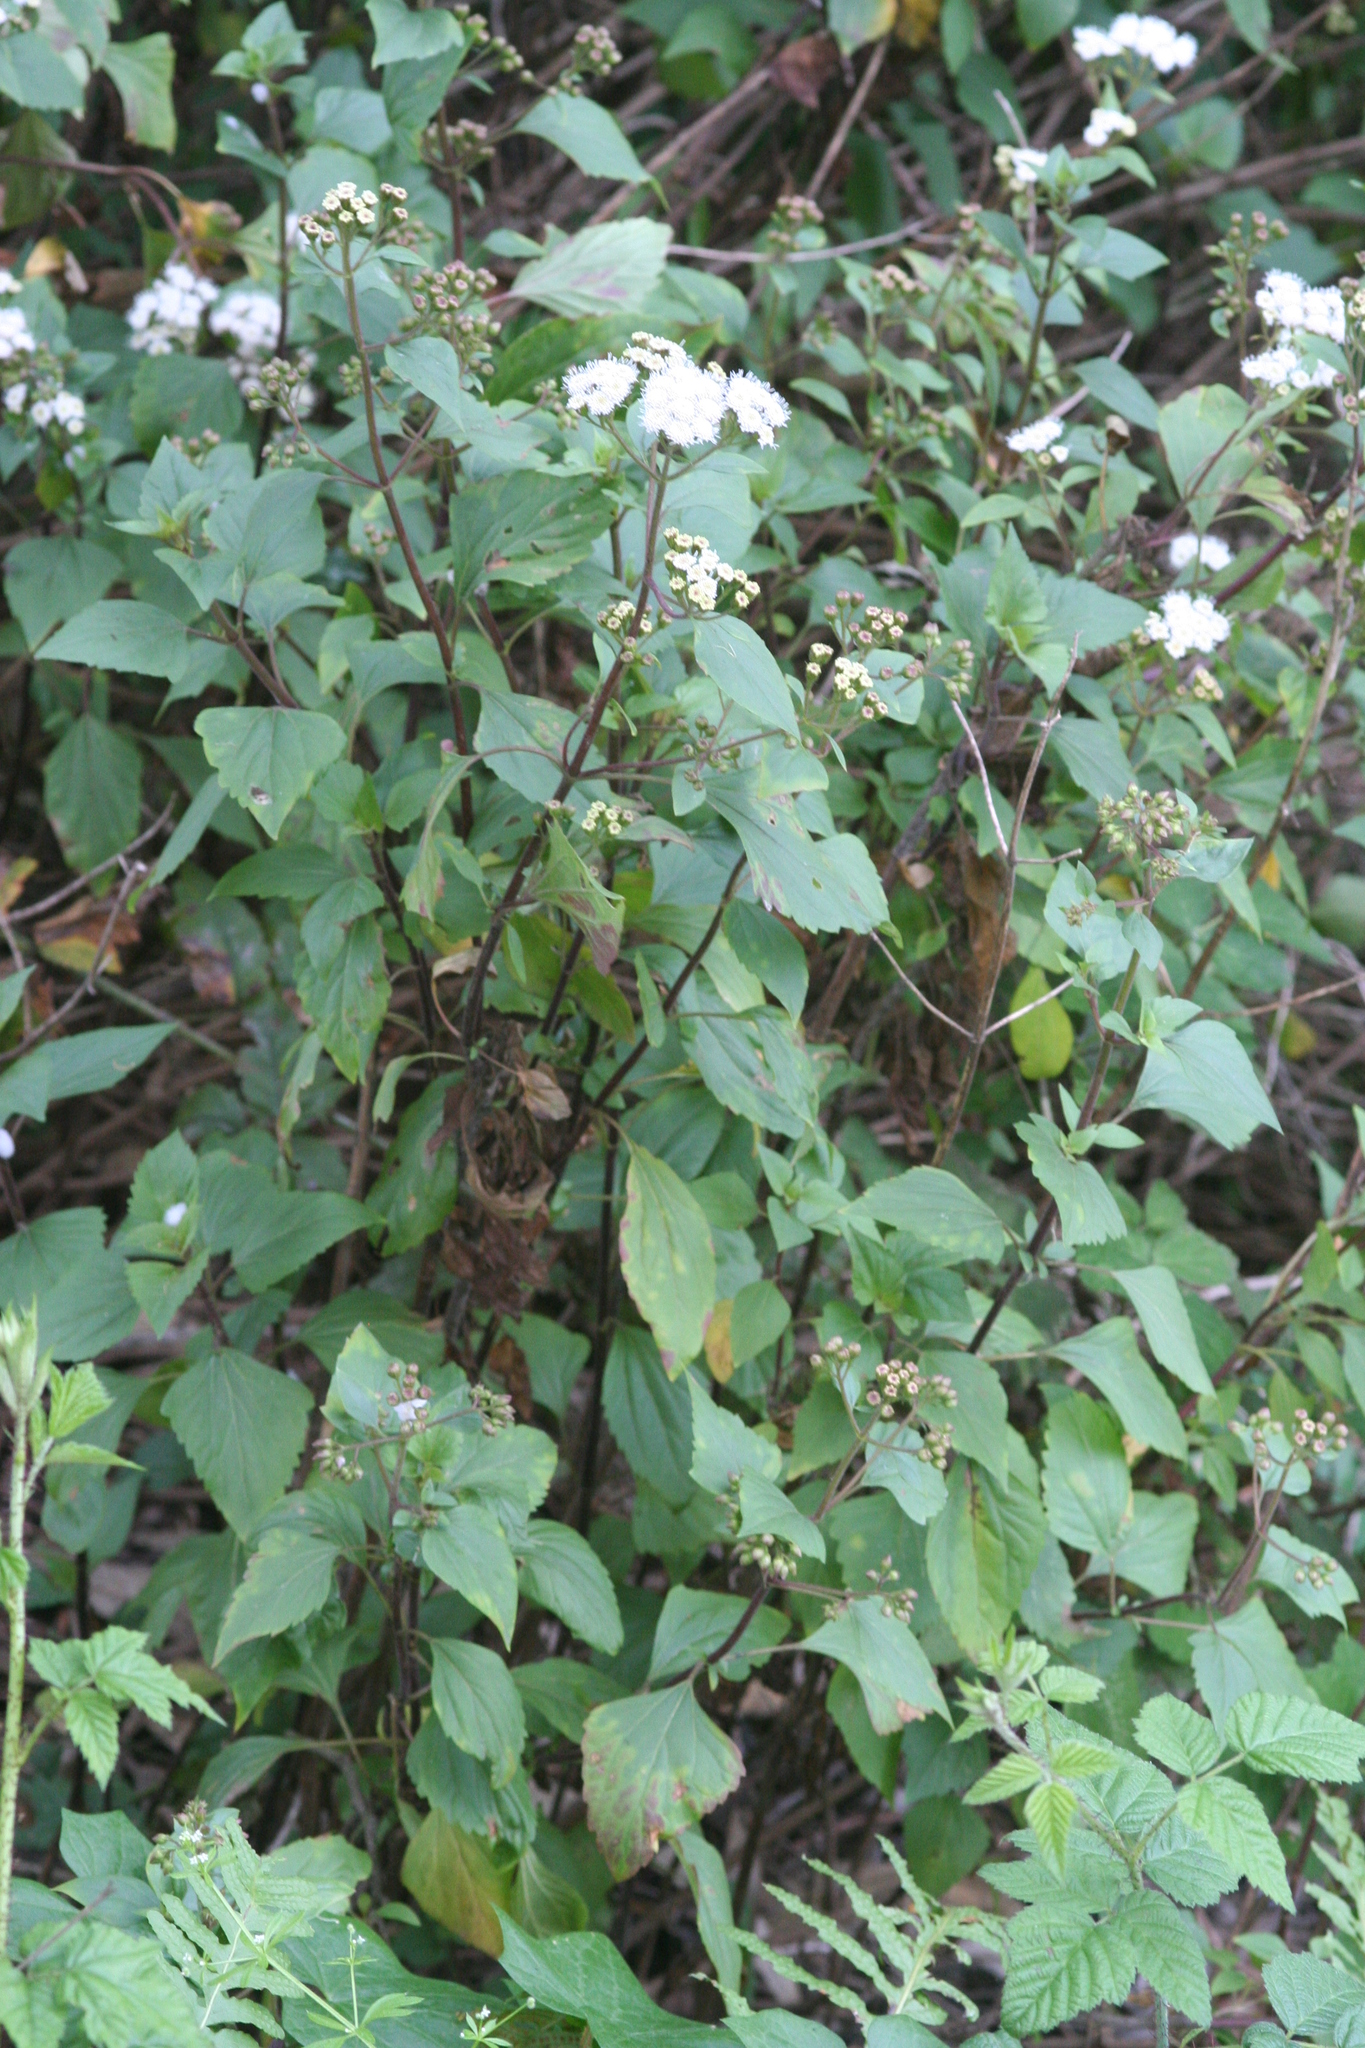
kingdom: Plantae
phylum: Tracheophyta
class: Magnoliopsida
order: Asterales
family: Asteraceae
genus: Ageratina
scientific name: Ageratina adenophora
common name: Sticky snakeroot
